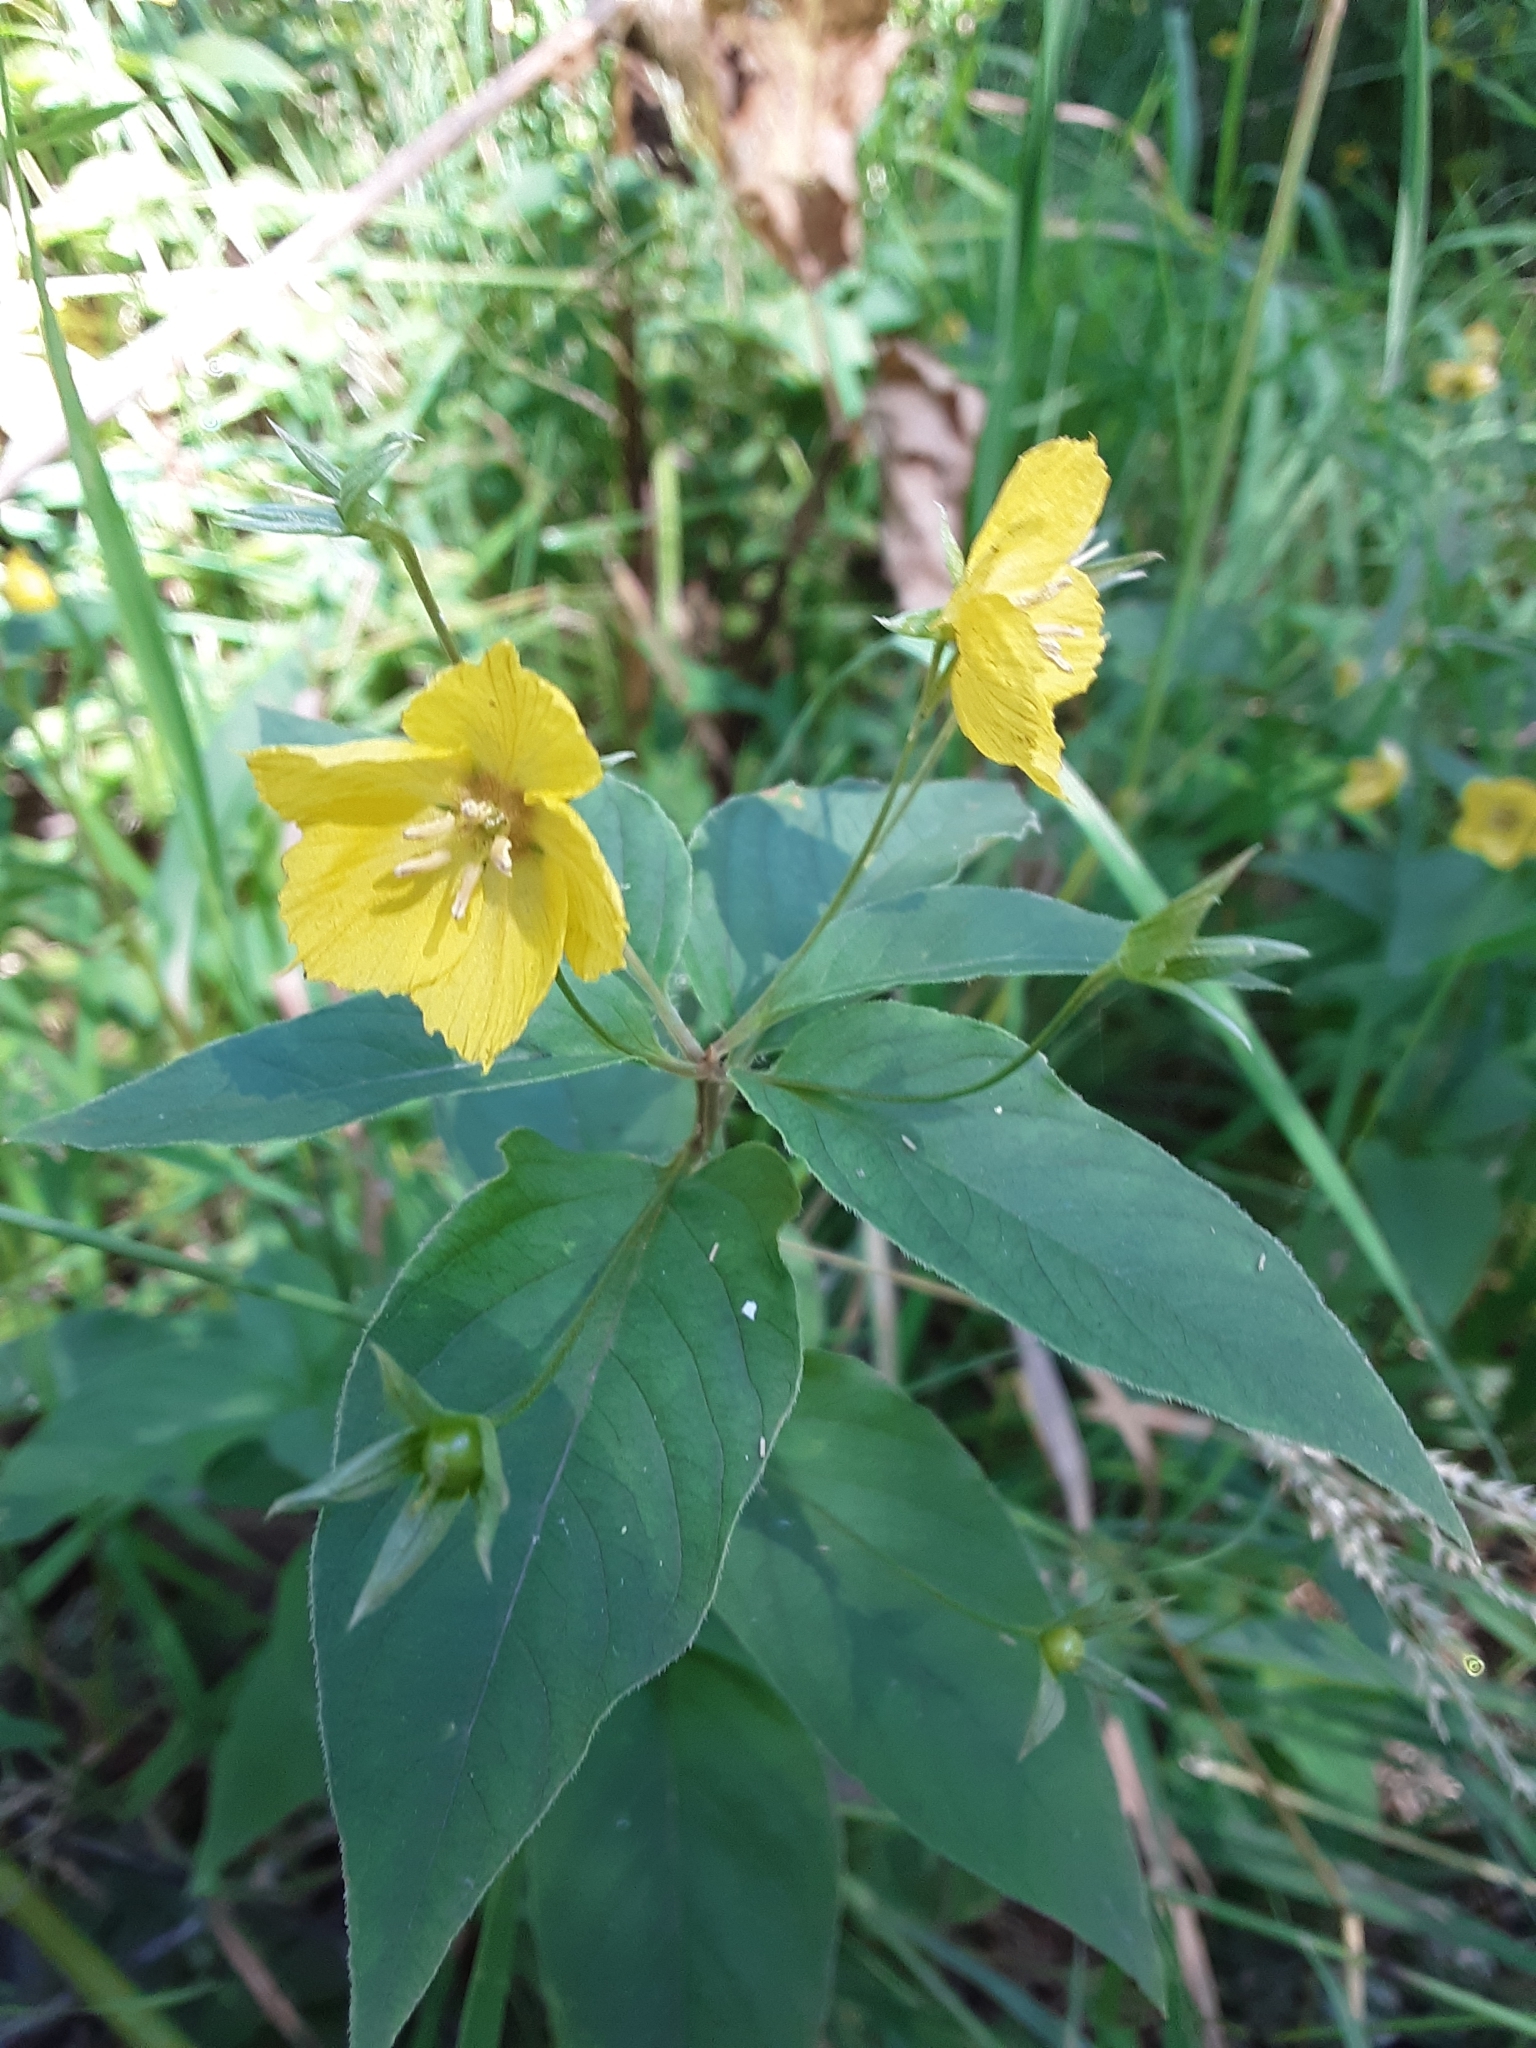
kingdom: Plantae
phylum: Tracheophyta
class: Magnoliopsida
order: Ericales
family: Primulaceae
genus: Lysimachia
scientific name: Lysimachia ciliata
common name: Fringed loosestrife
